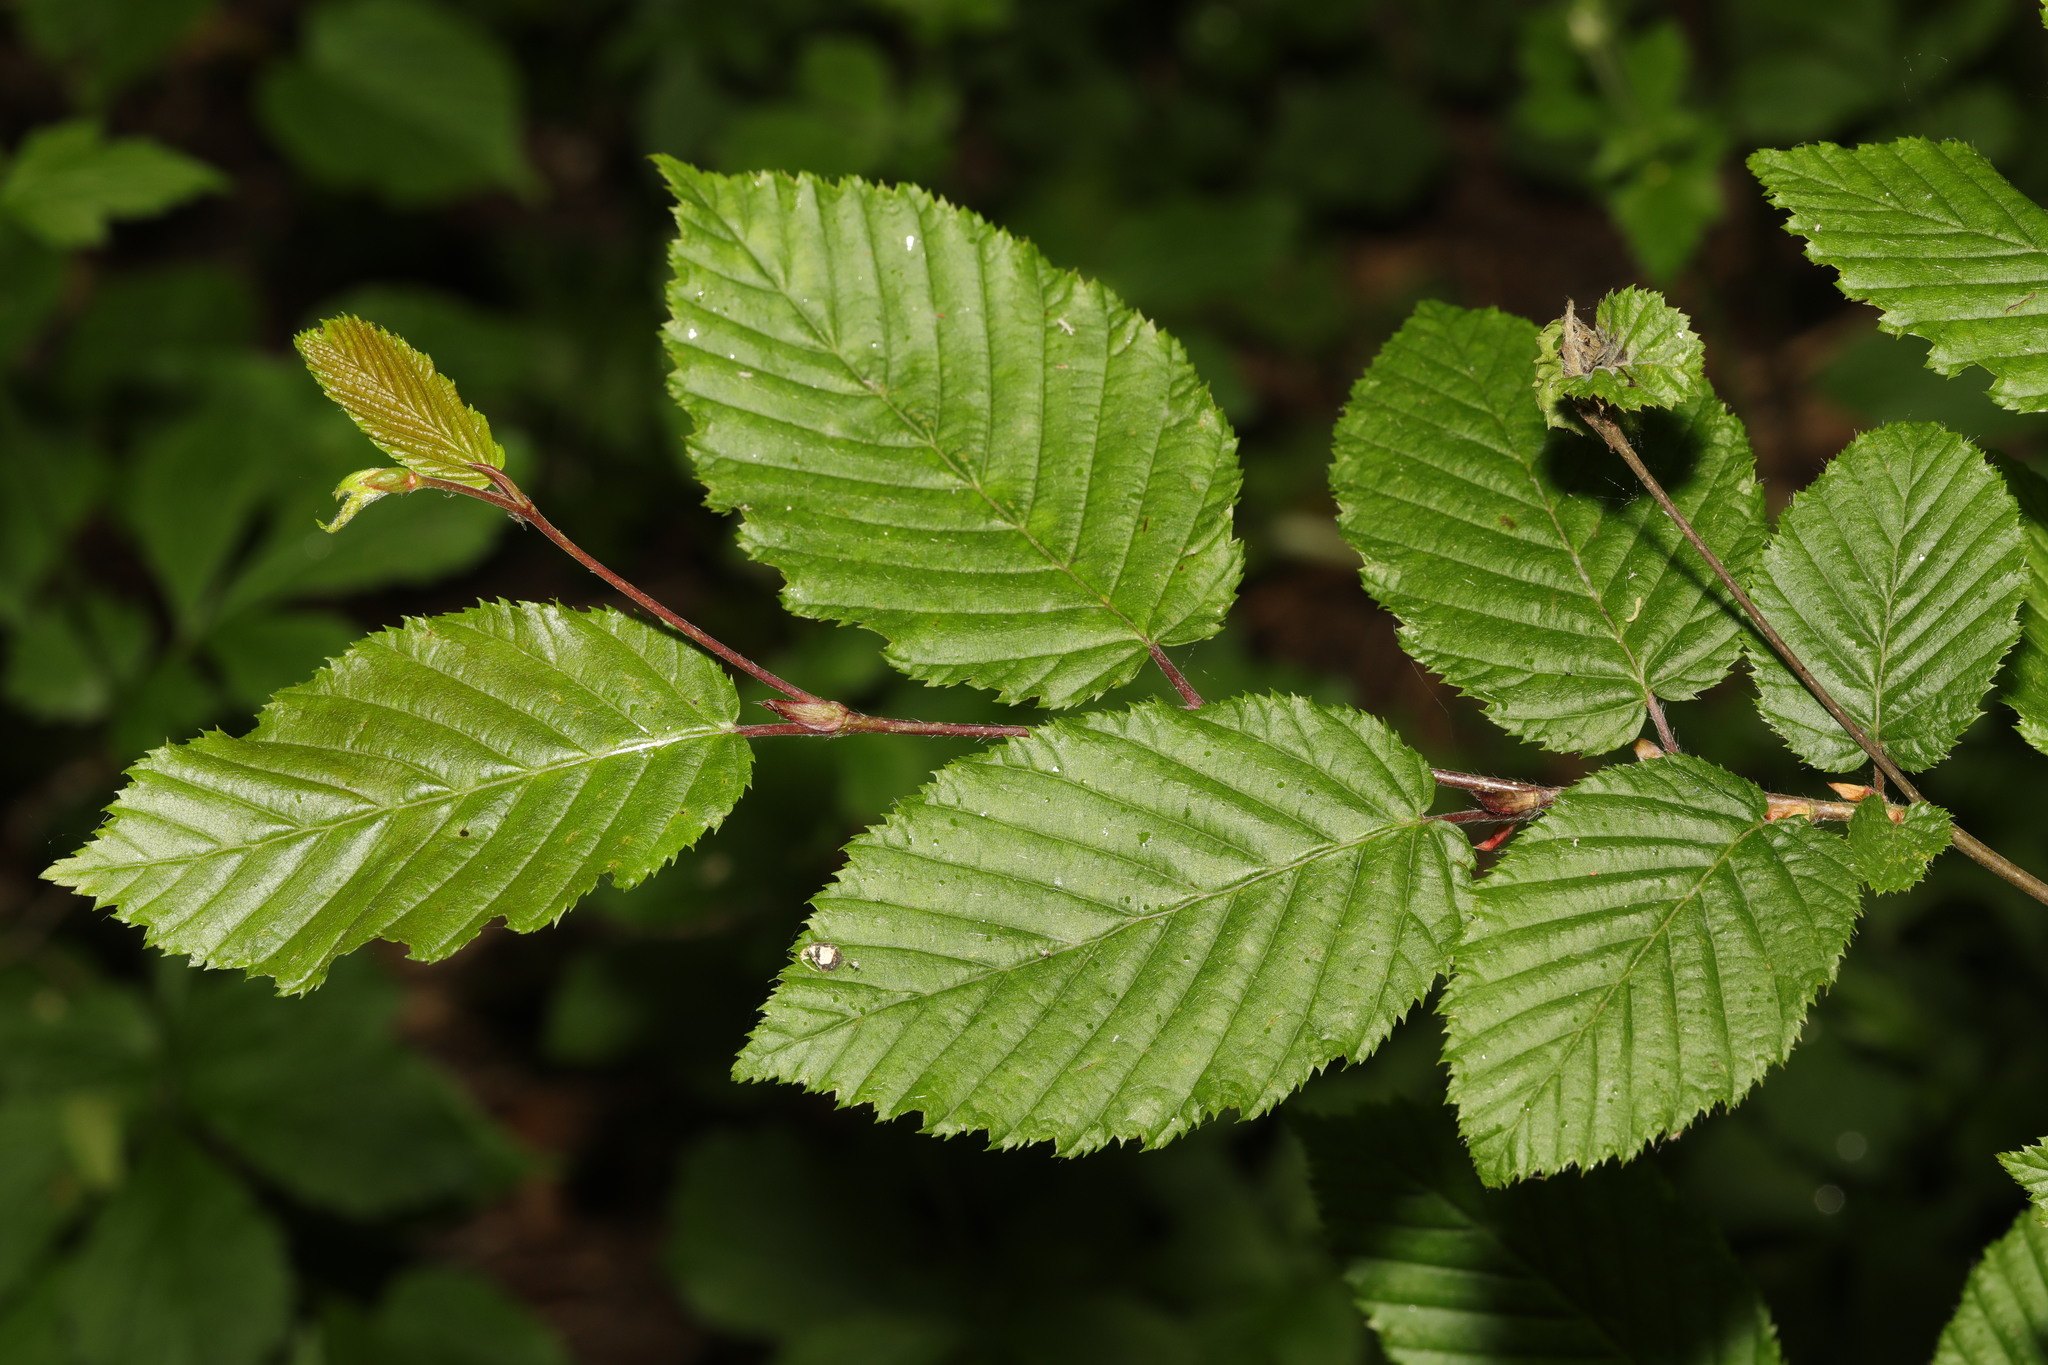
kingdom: Plantae
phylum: Tracheophyta
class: Magnoliopsida
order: Fagales
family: Betulaceae
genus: Carpinus
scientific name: Carpinus betulus
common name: Hornbeam
